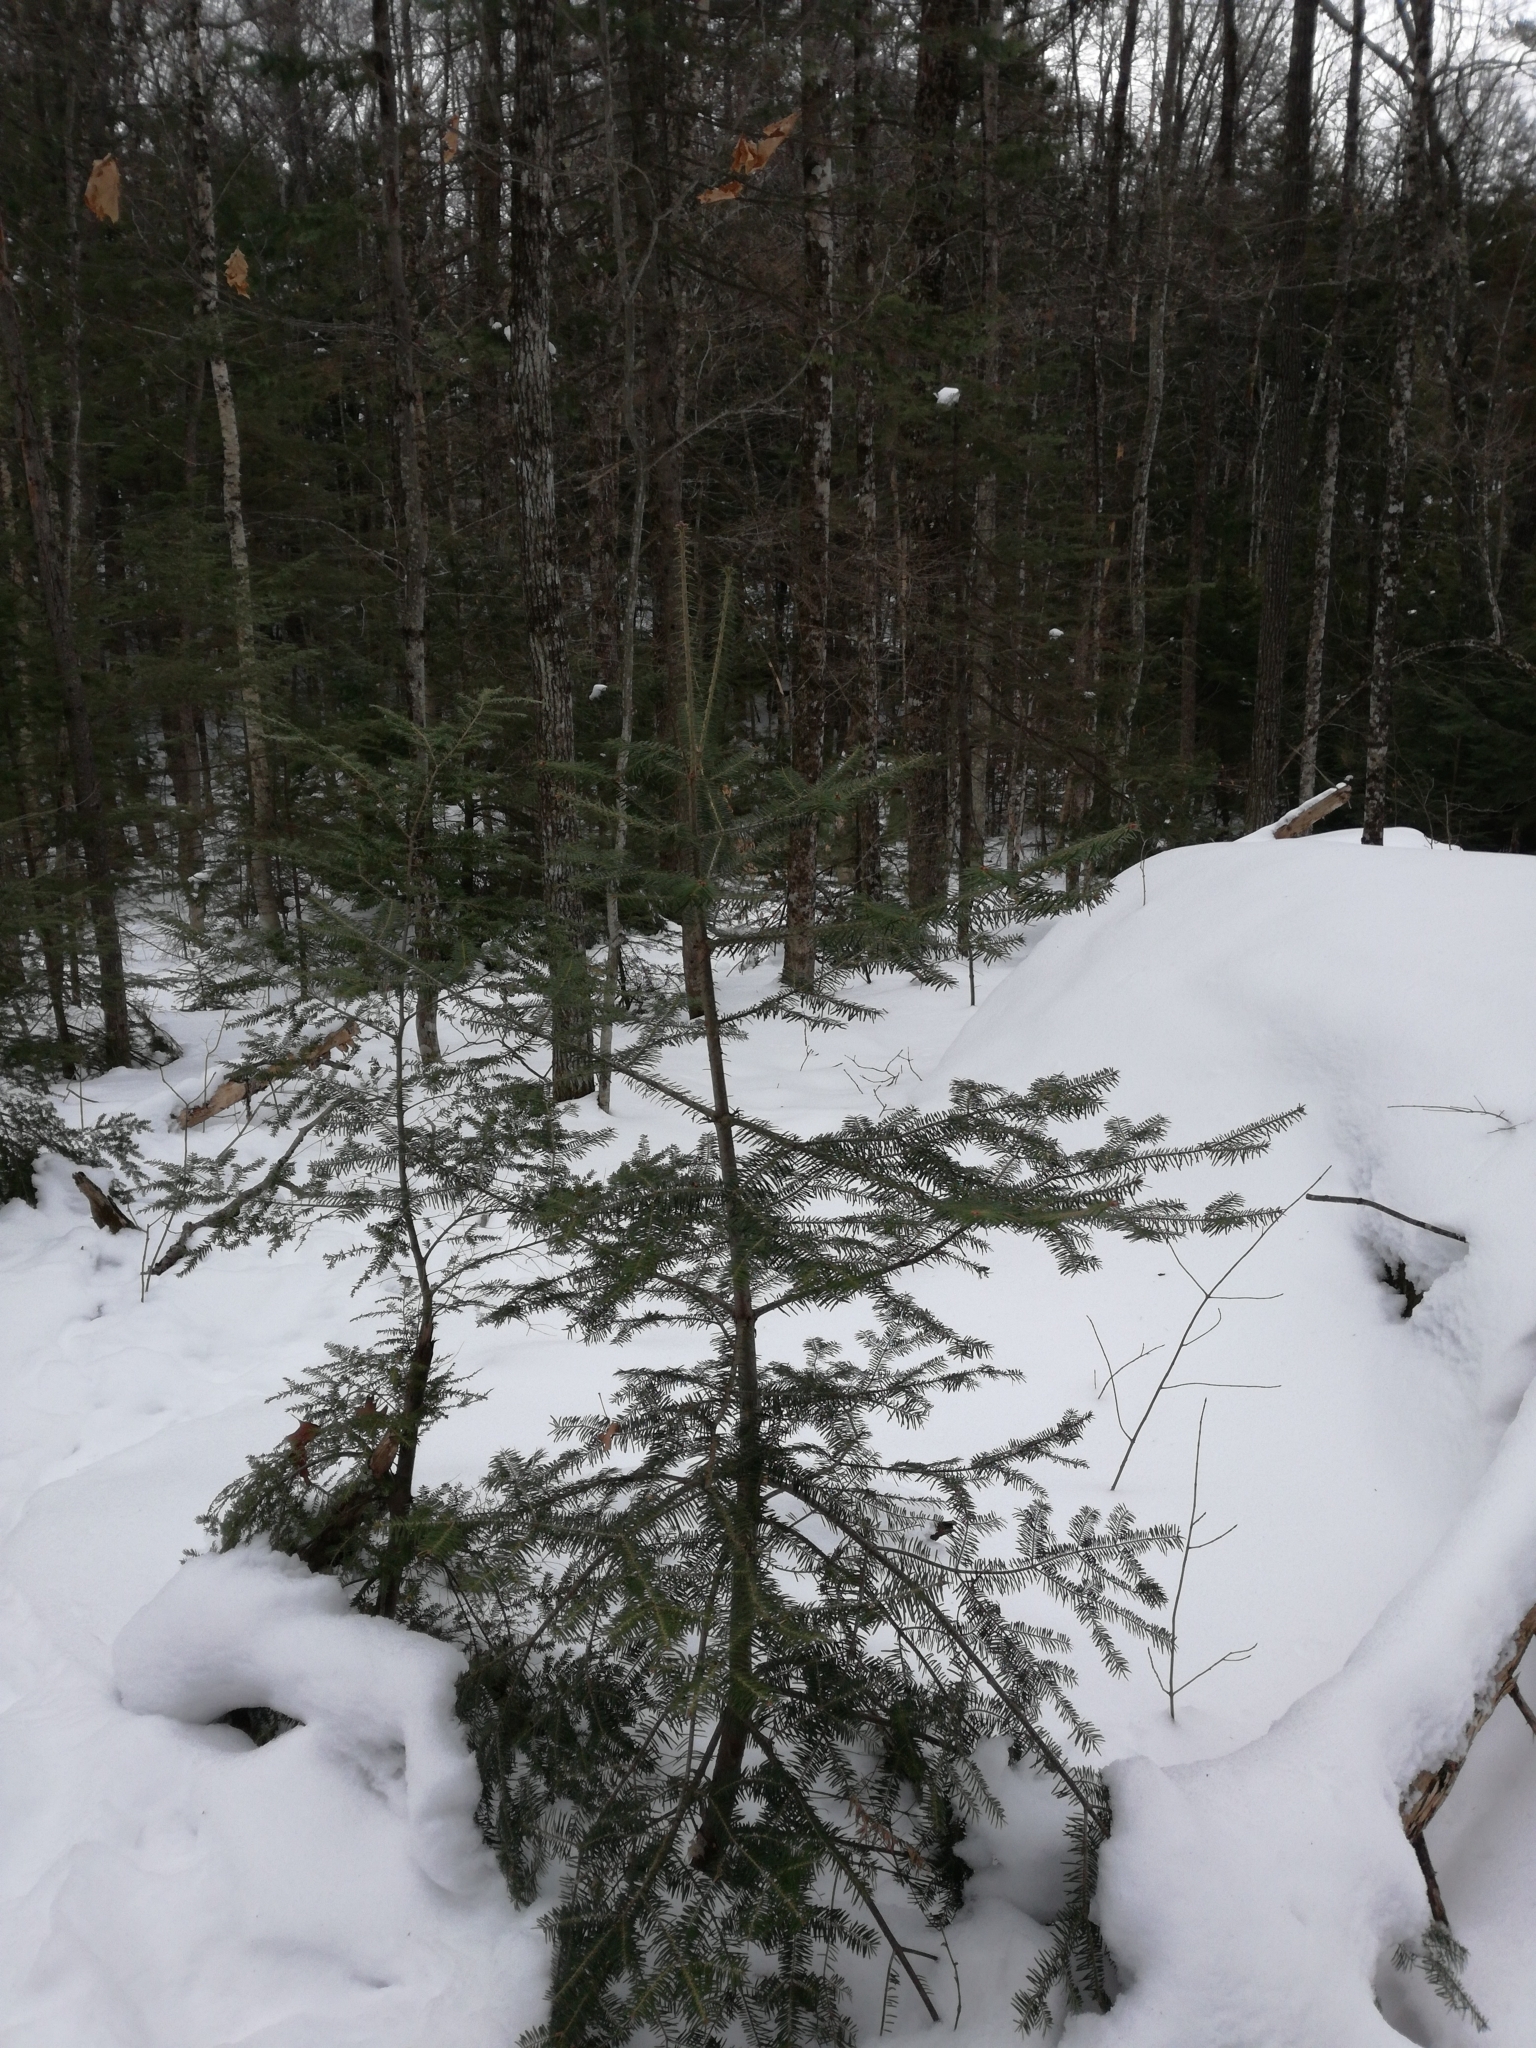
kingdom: Plantae
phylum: Tracheophyta
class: Pinopsida
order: Pinales
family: Pinaceae
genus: Abies
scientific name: Abies balsamea
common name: Balsam fir
